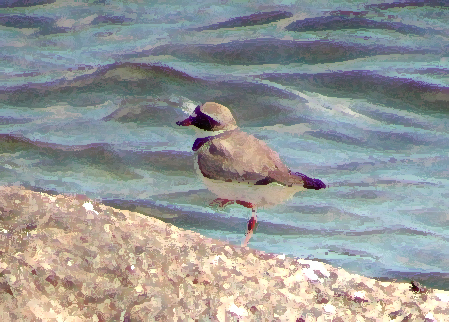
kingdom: Animalia
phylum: Chordata
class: Aves
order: Charadriiformes
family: Charadriidae
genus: Charadrius
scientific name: Charadrius hiaticula
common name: Common ringed plover
